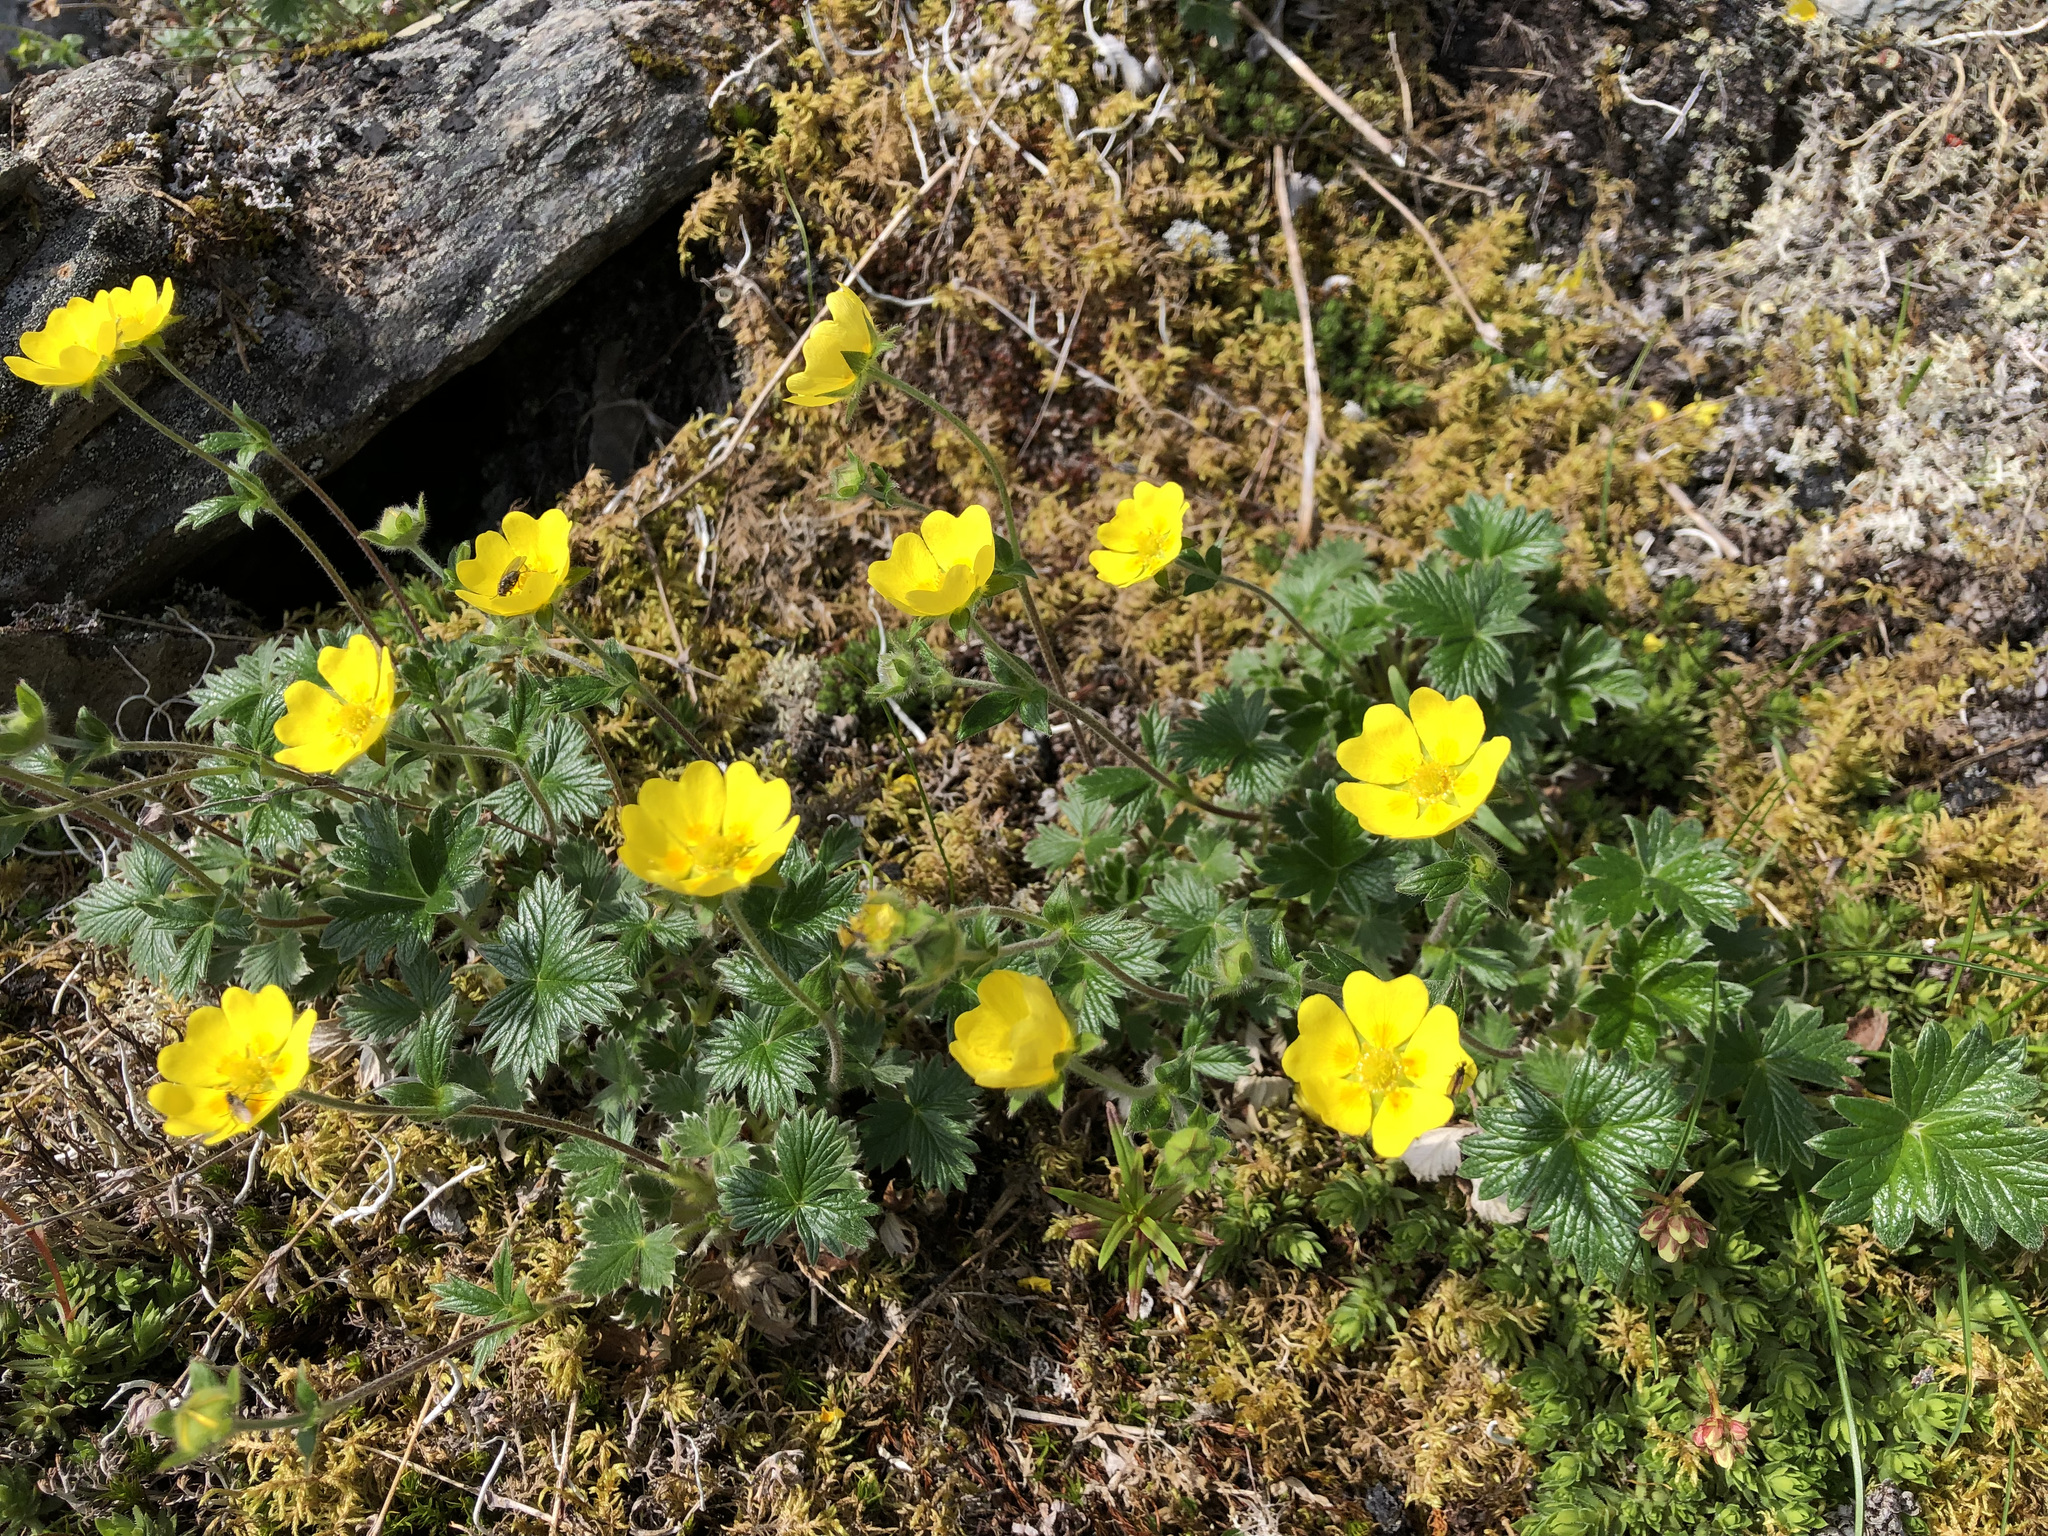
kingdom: Plantae
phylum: Tracheophyta
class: Magnoliopsida
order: Rosales
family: Rosaceae
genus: Potentilla
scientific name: Potentilla villosula
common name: Finely villous cinquefoil
